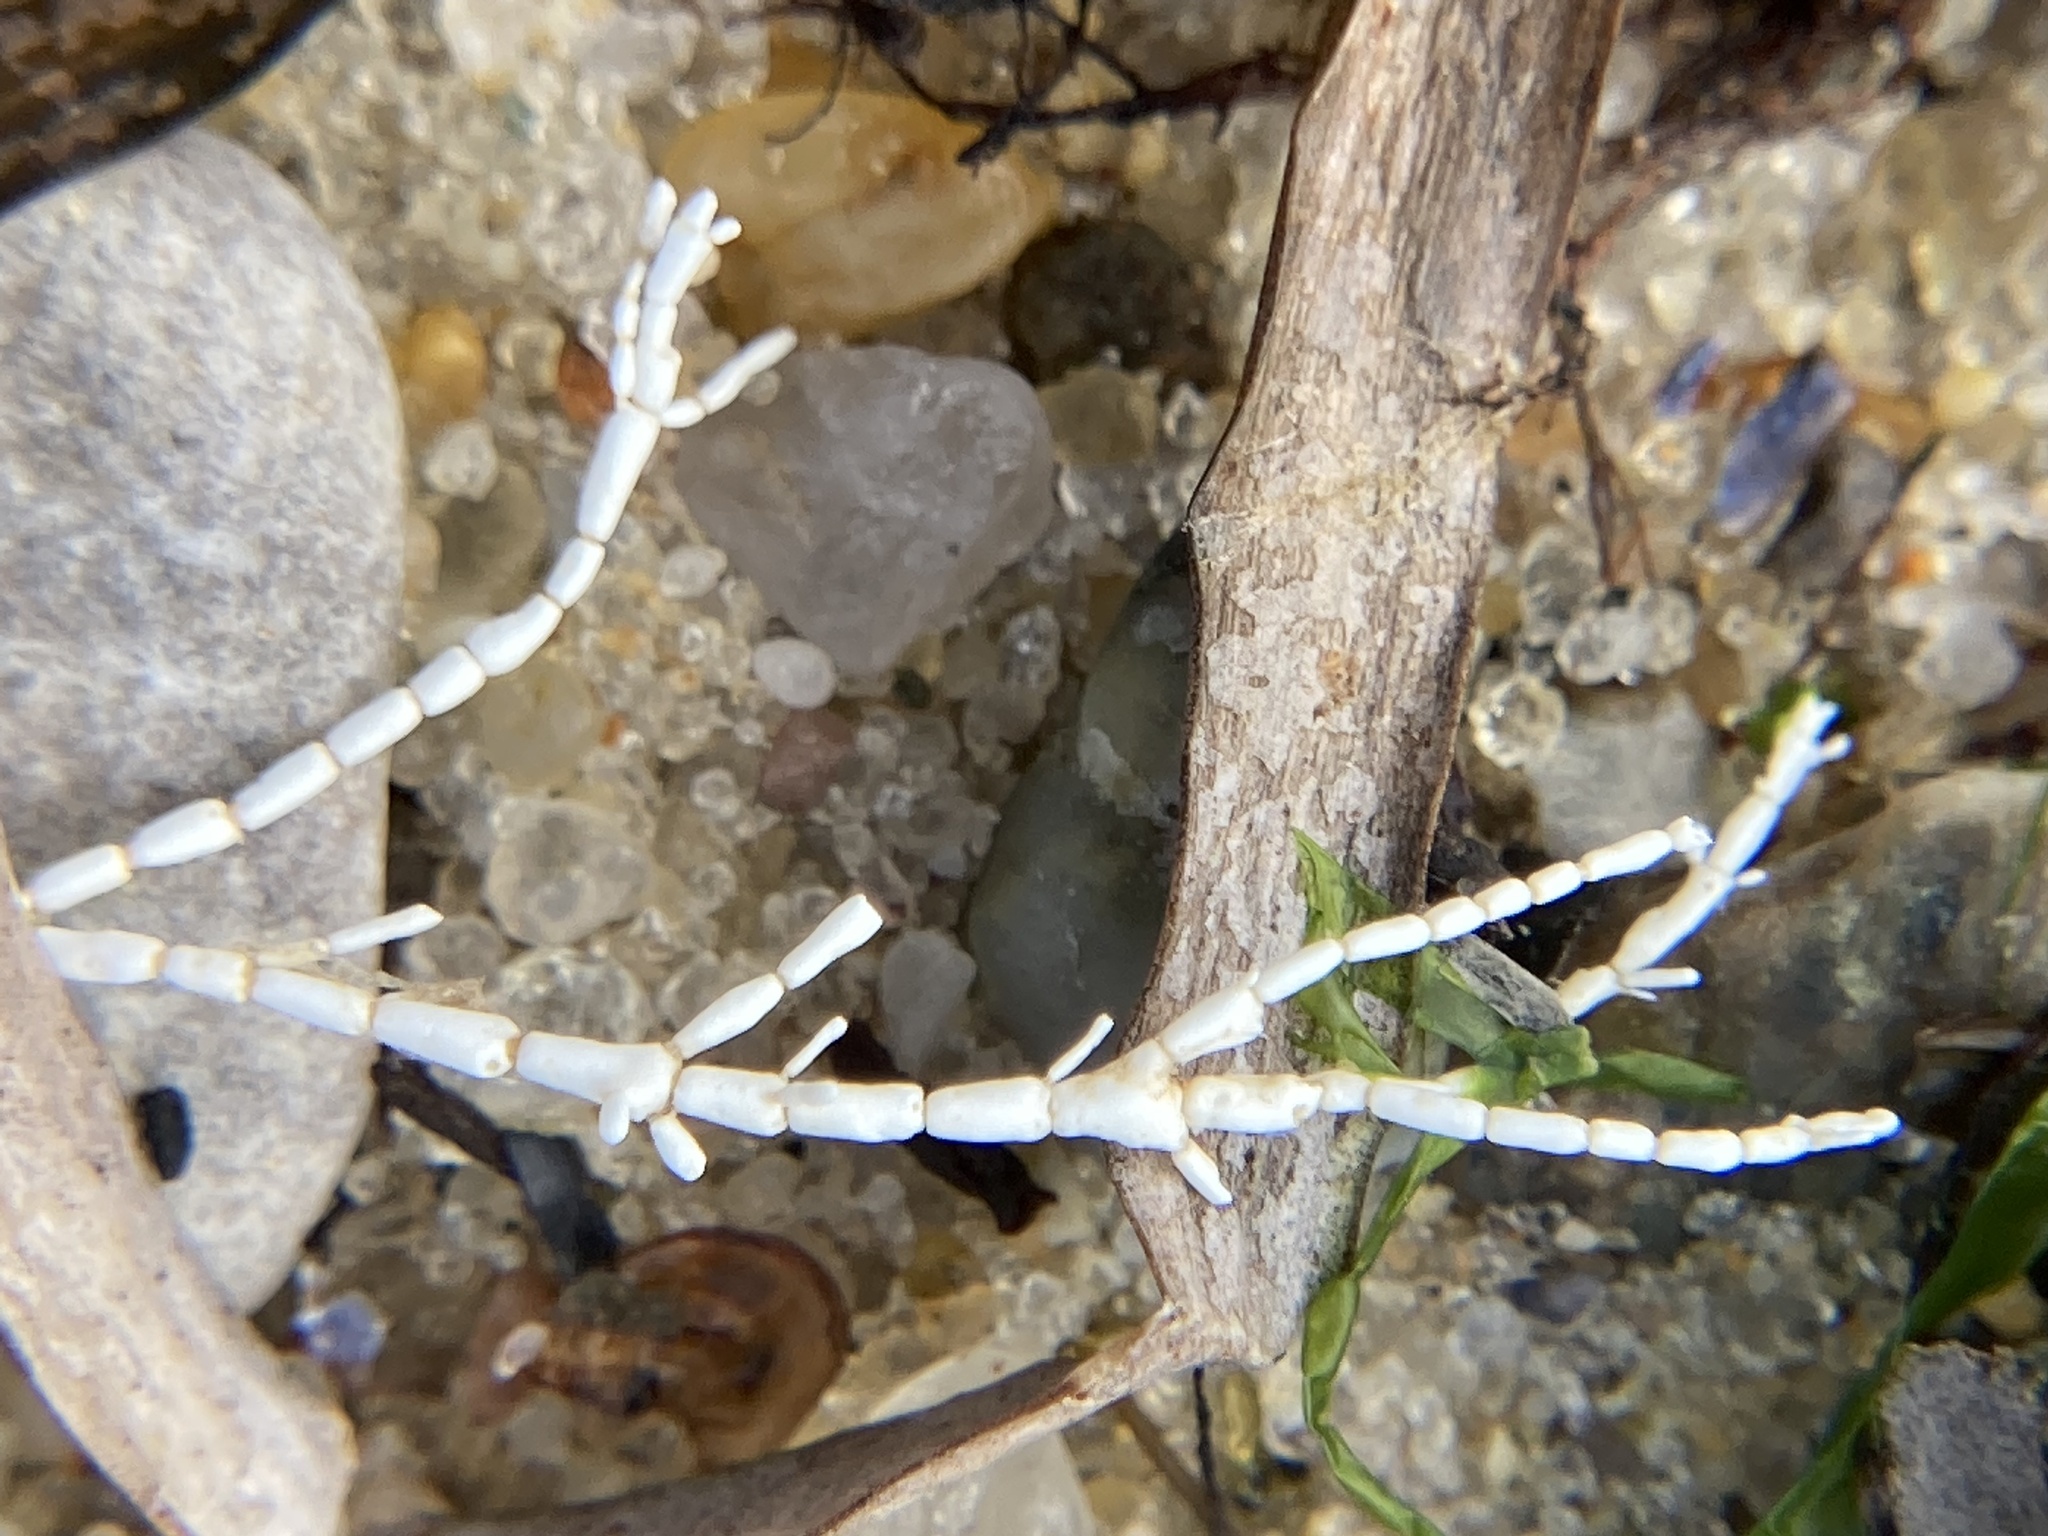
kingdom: Plantae
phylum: Rhodophyta
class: Florideophyceae
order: Corallinales
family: Corallinaceae
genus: Corallina
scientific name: Corallina officinalis
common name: Coral weed
